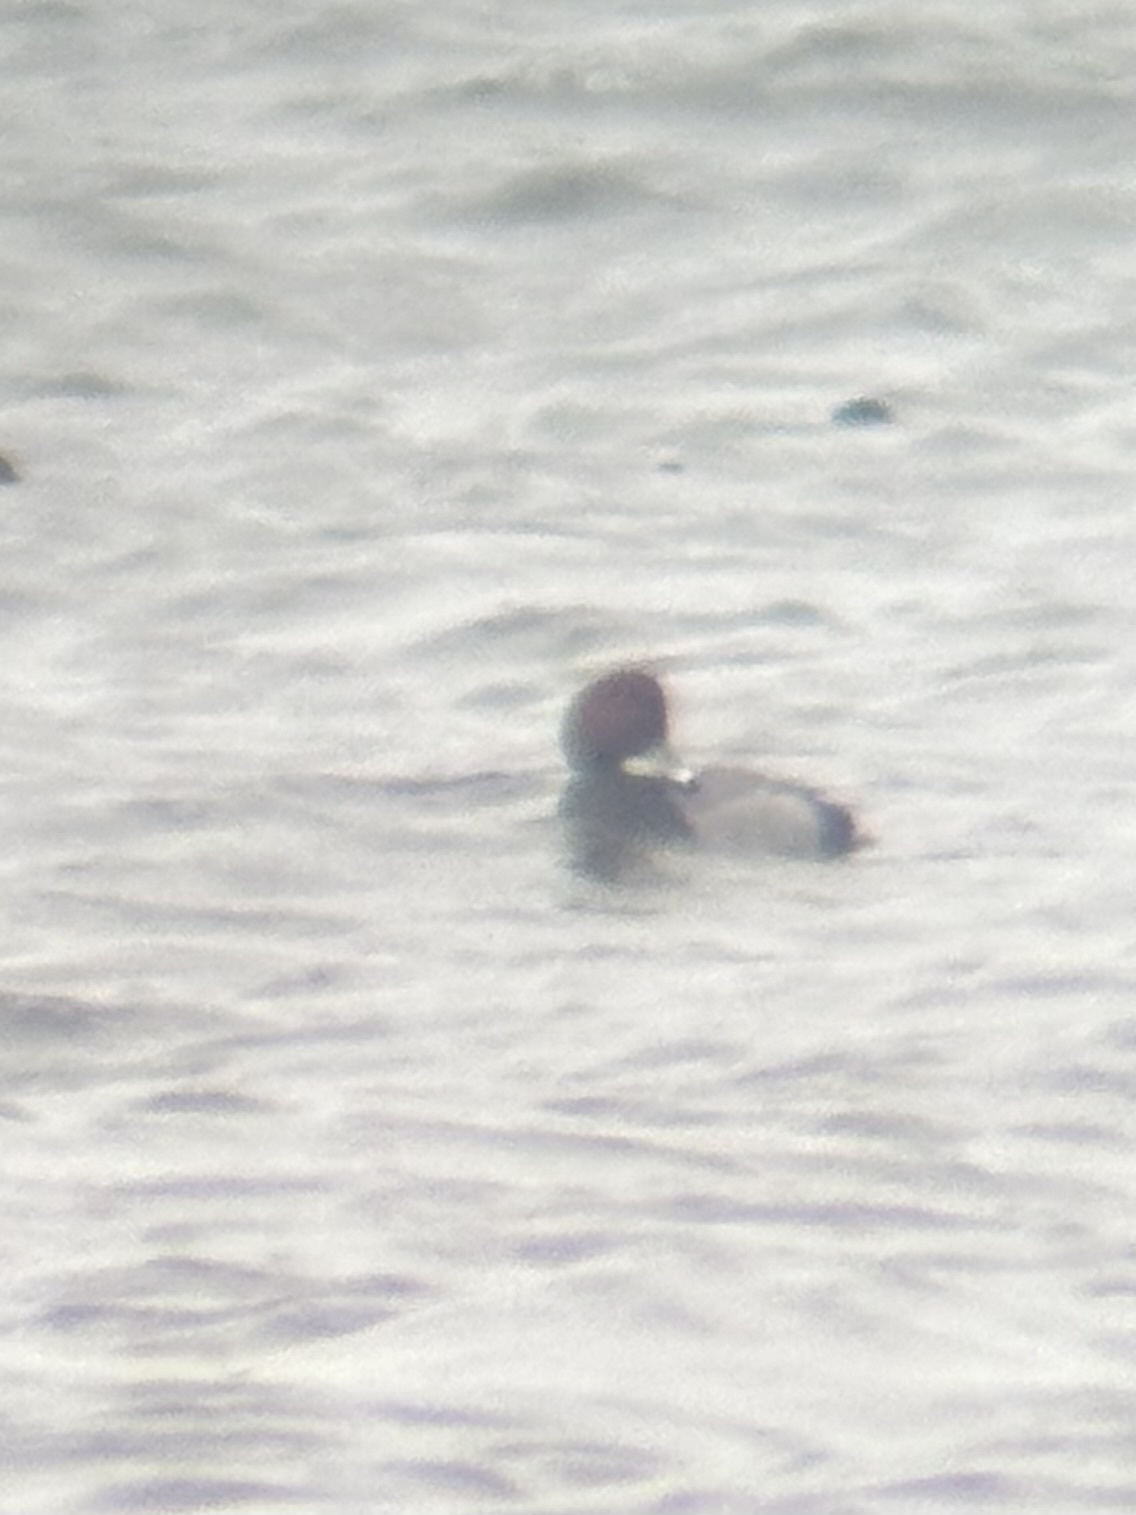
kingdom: Animalia
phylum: Chordata
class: Aves
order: Anseriformes
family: Anatidae
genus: Aythya
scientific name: Aythya americana
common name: Redhead
